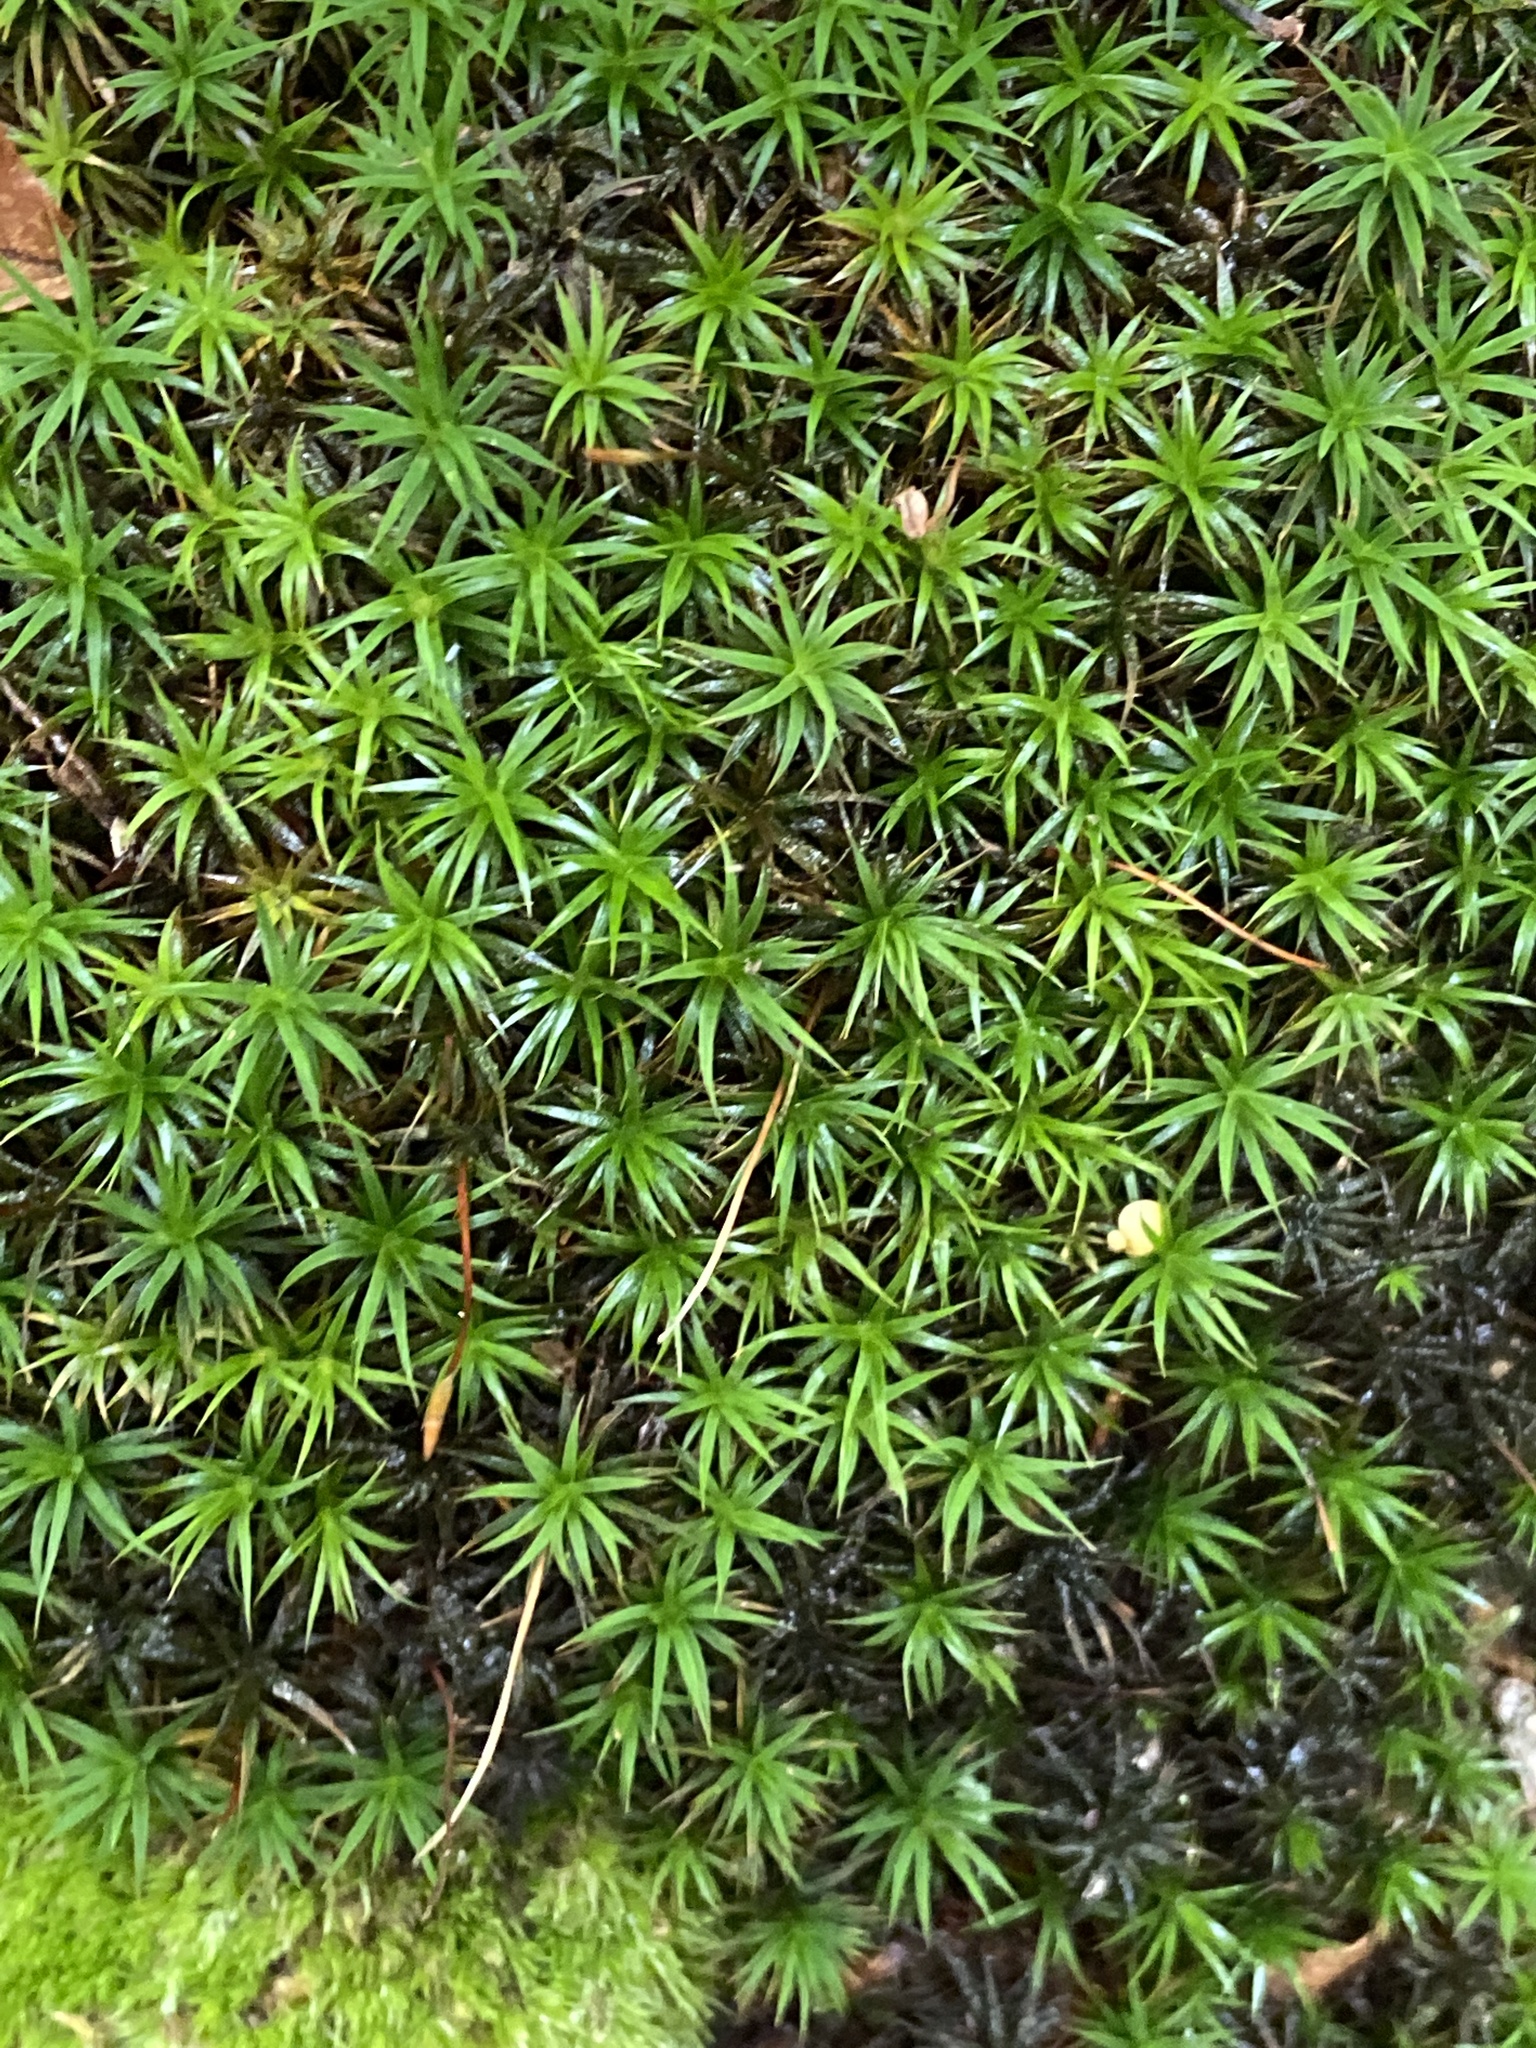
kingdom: Plantae
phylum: Bryophyta
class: Polytrichopsida
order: Polytrichales
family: Polytrichaceae
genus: Polytrichum
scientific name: Polytrichum formosum
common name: Bank haircap moss
